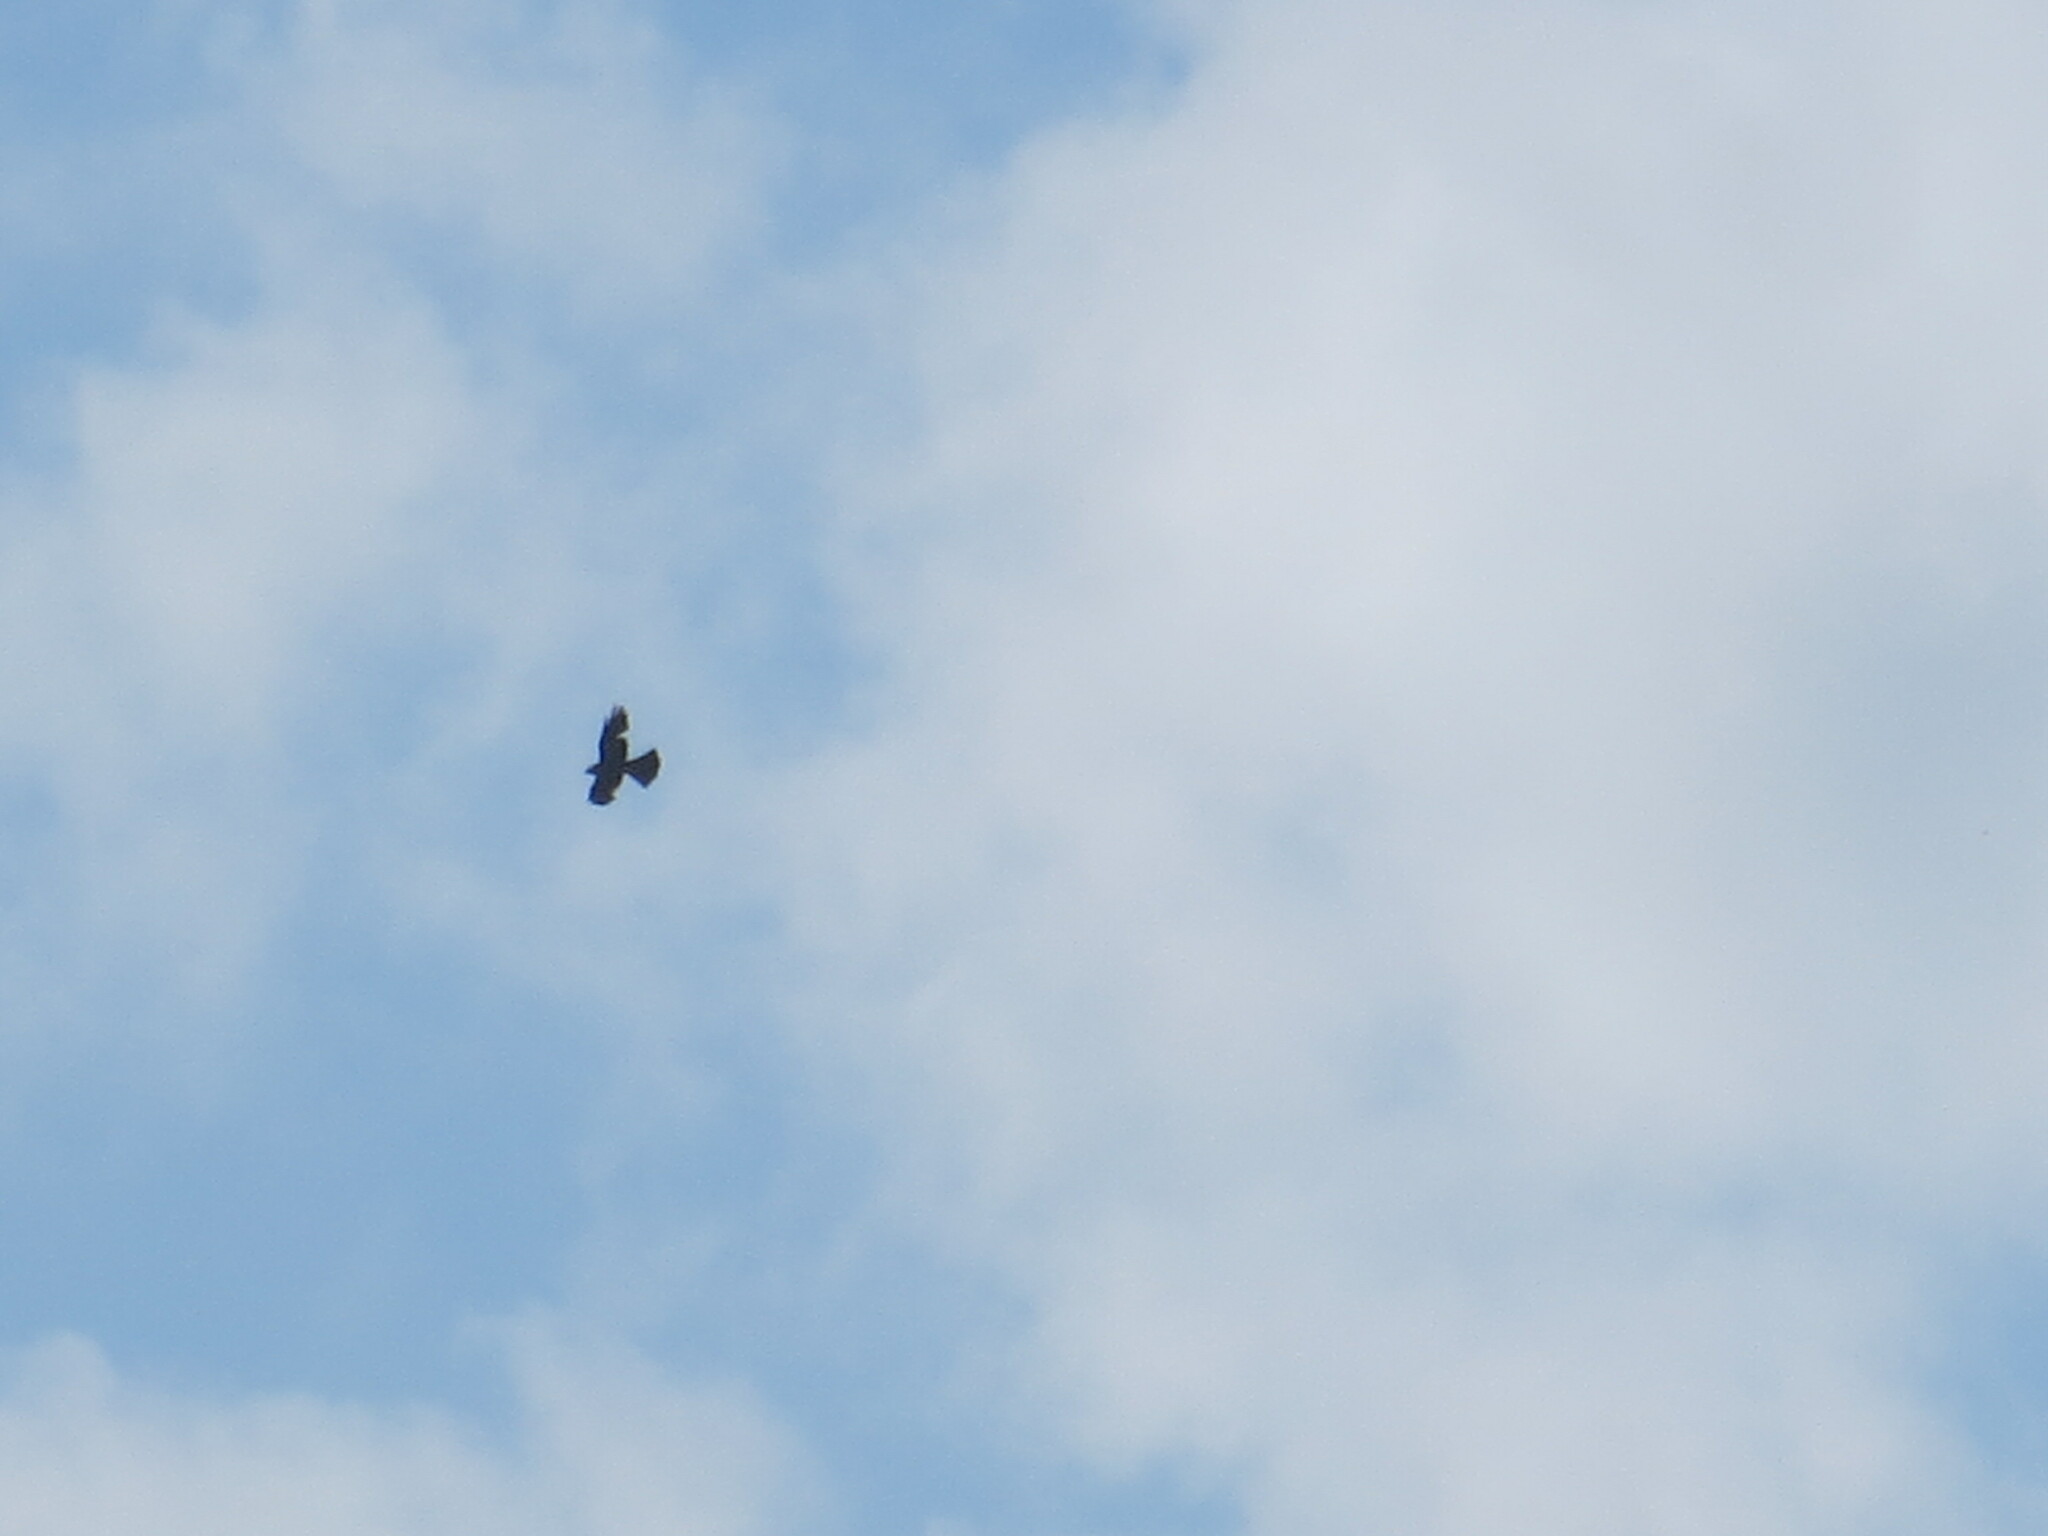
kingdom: Animalia
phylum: Chordata
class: Aves
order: Accipitriformes
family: Accipitridae
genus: Ictinia
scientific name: Ictinia mississippiensis
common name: Mississippi kite
